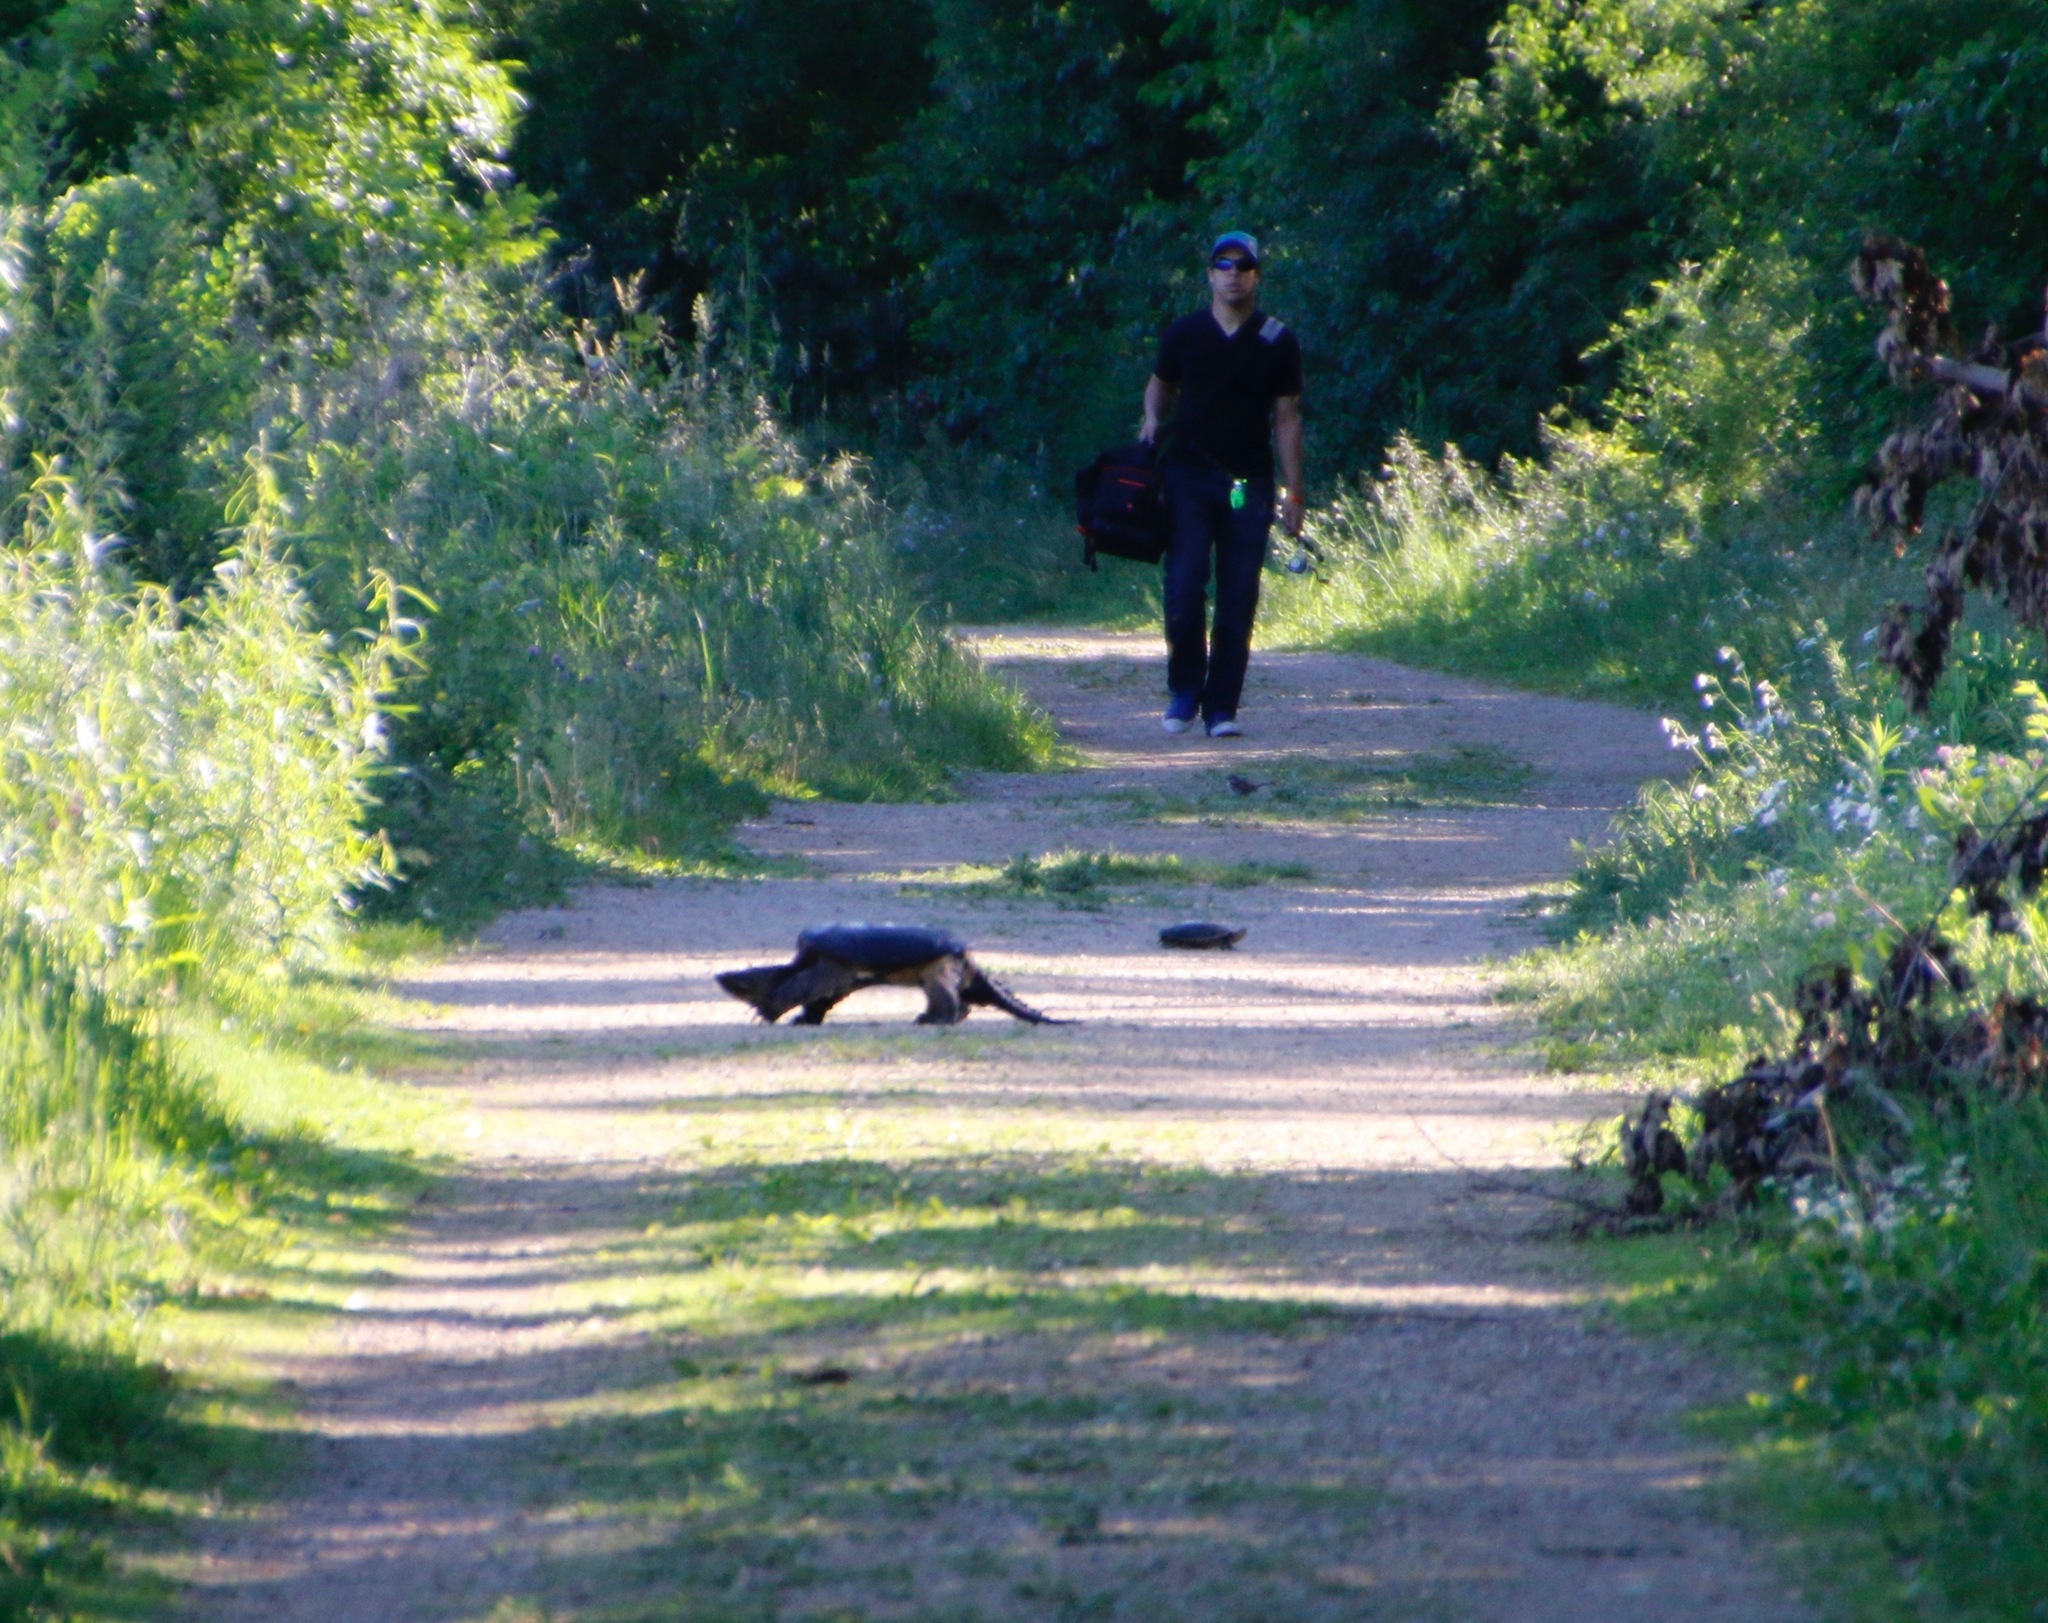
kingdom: Animalia
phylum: Chordata
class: Testudines
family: Chelydridae
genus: Chelydra
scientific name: Chelydra serpentina
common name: Common snapping turtle
